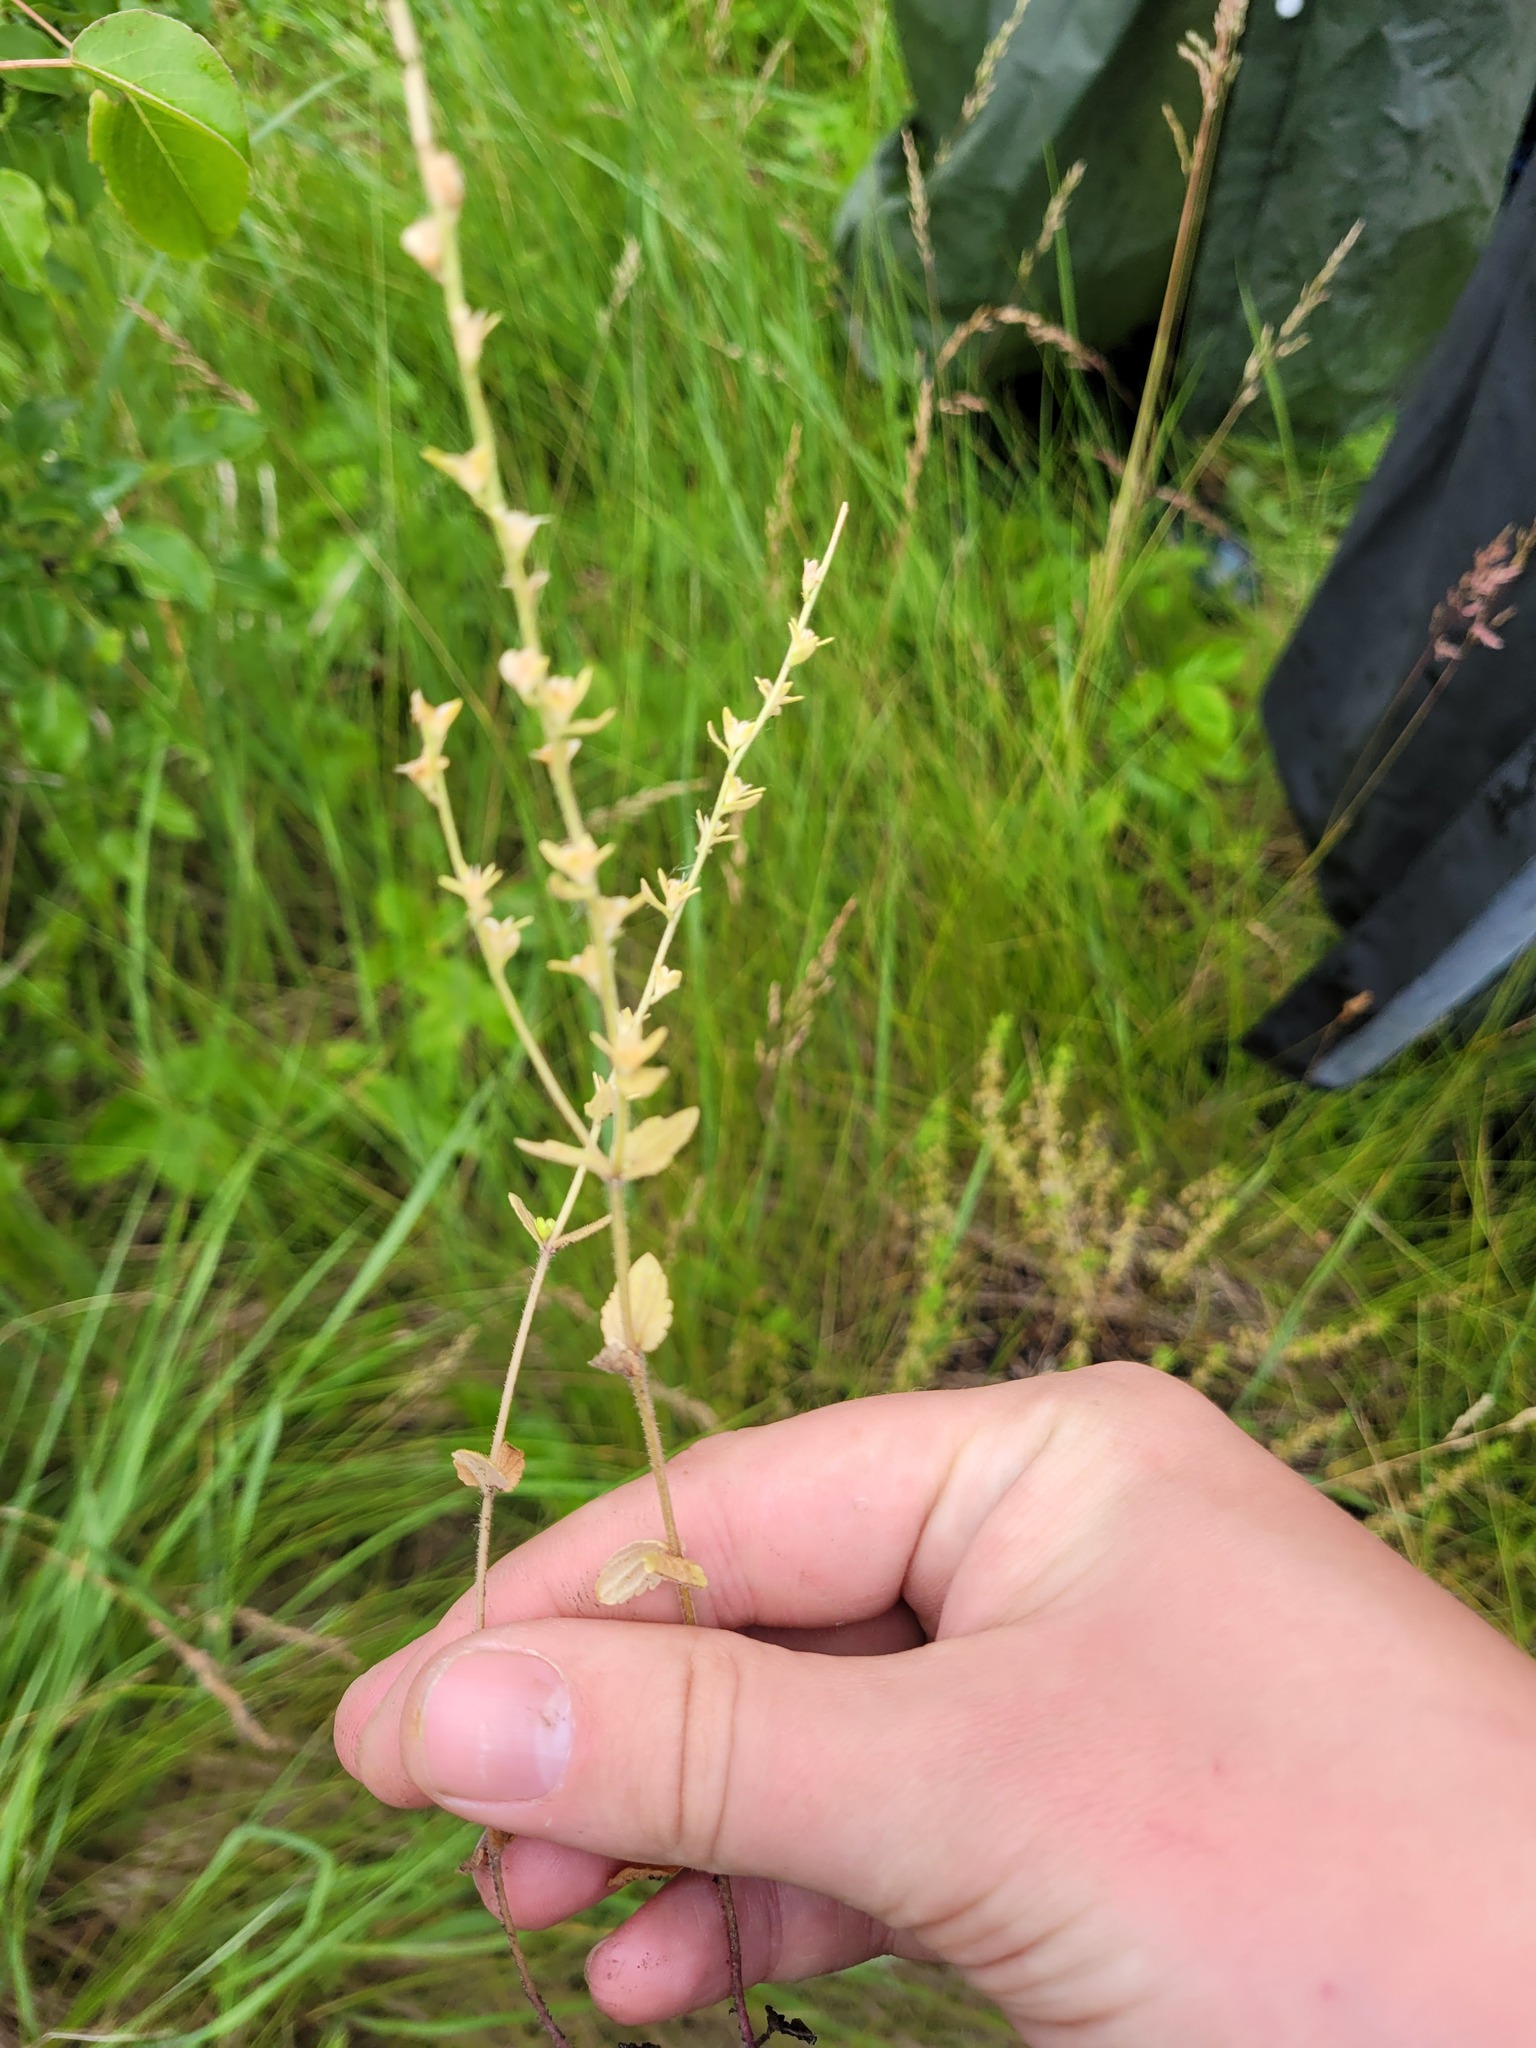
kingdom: Plantae
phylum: Tracheophyta
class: Magnoliopsida
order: Lamiales
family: Plantaginaceae
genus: Veronica
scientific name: Veronica arvensis
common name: Corn speedwell
